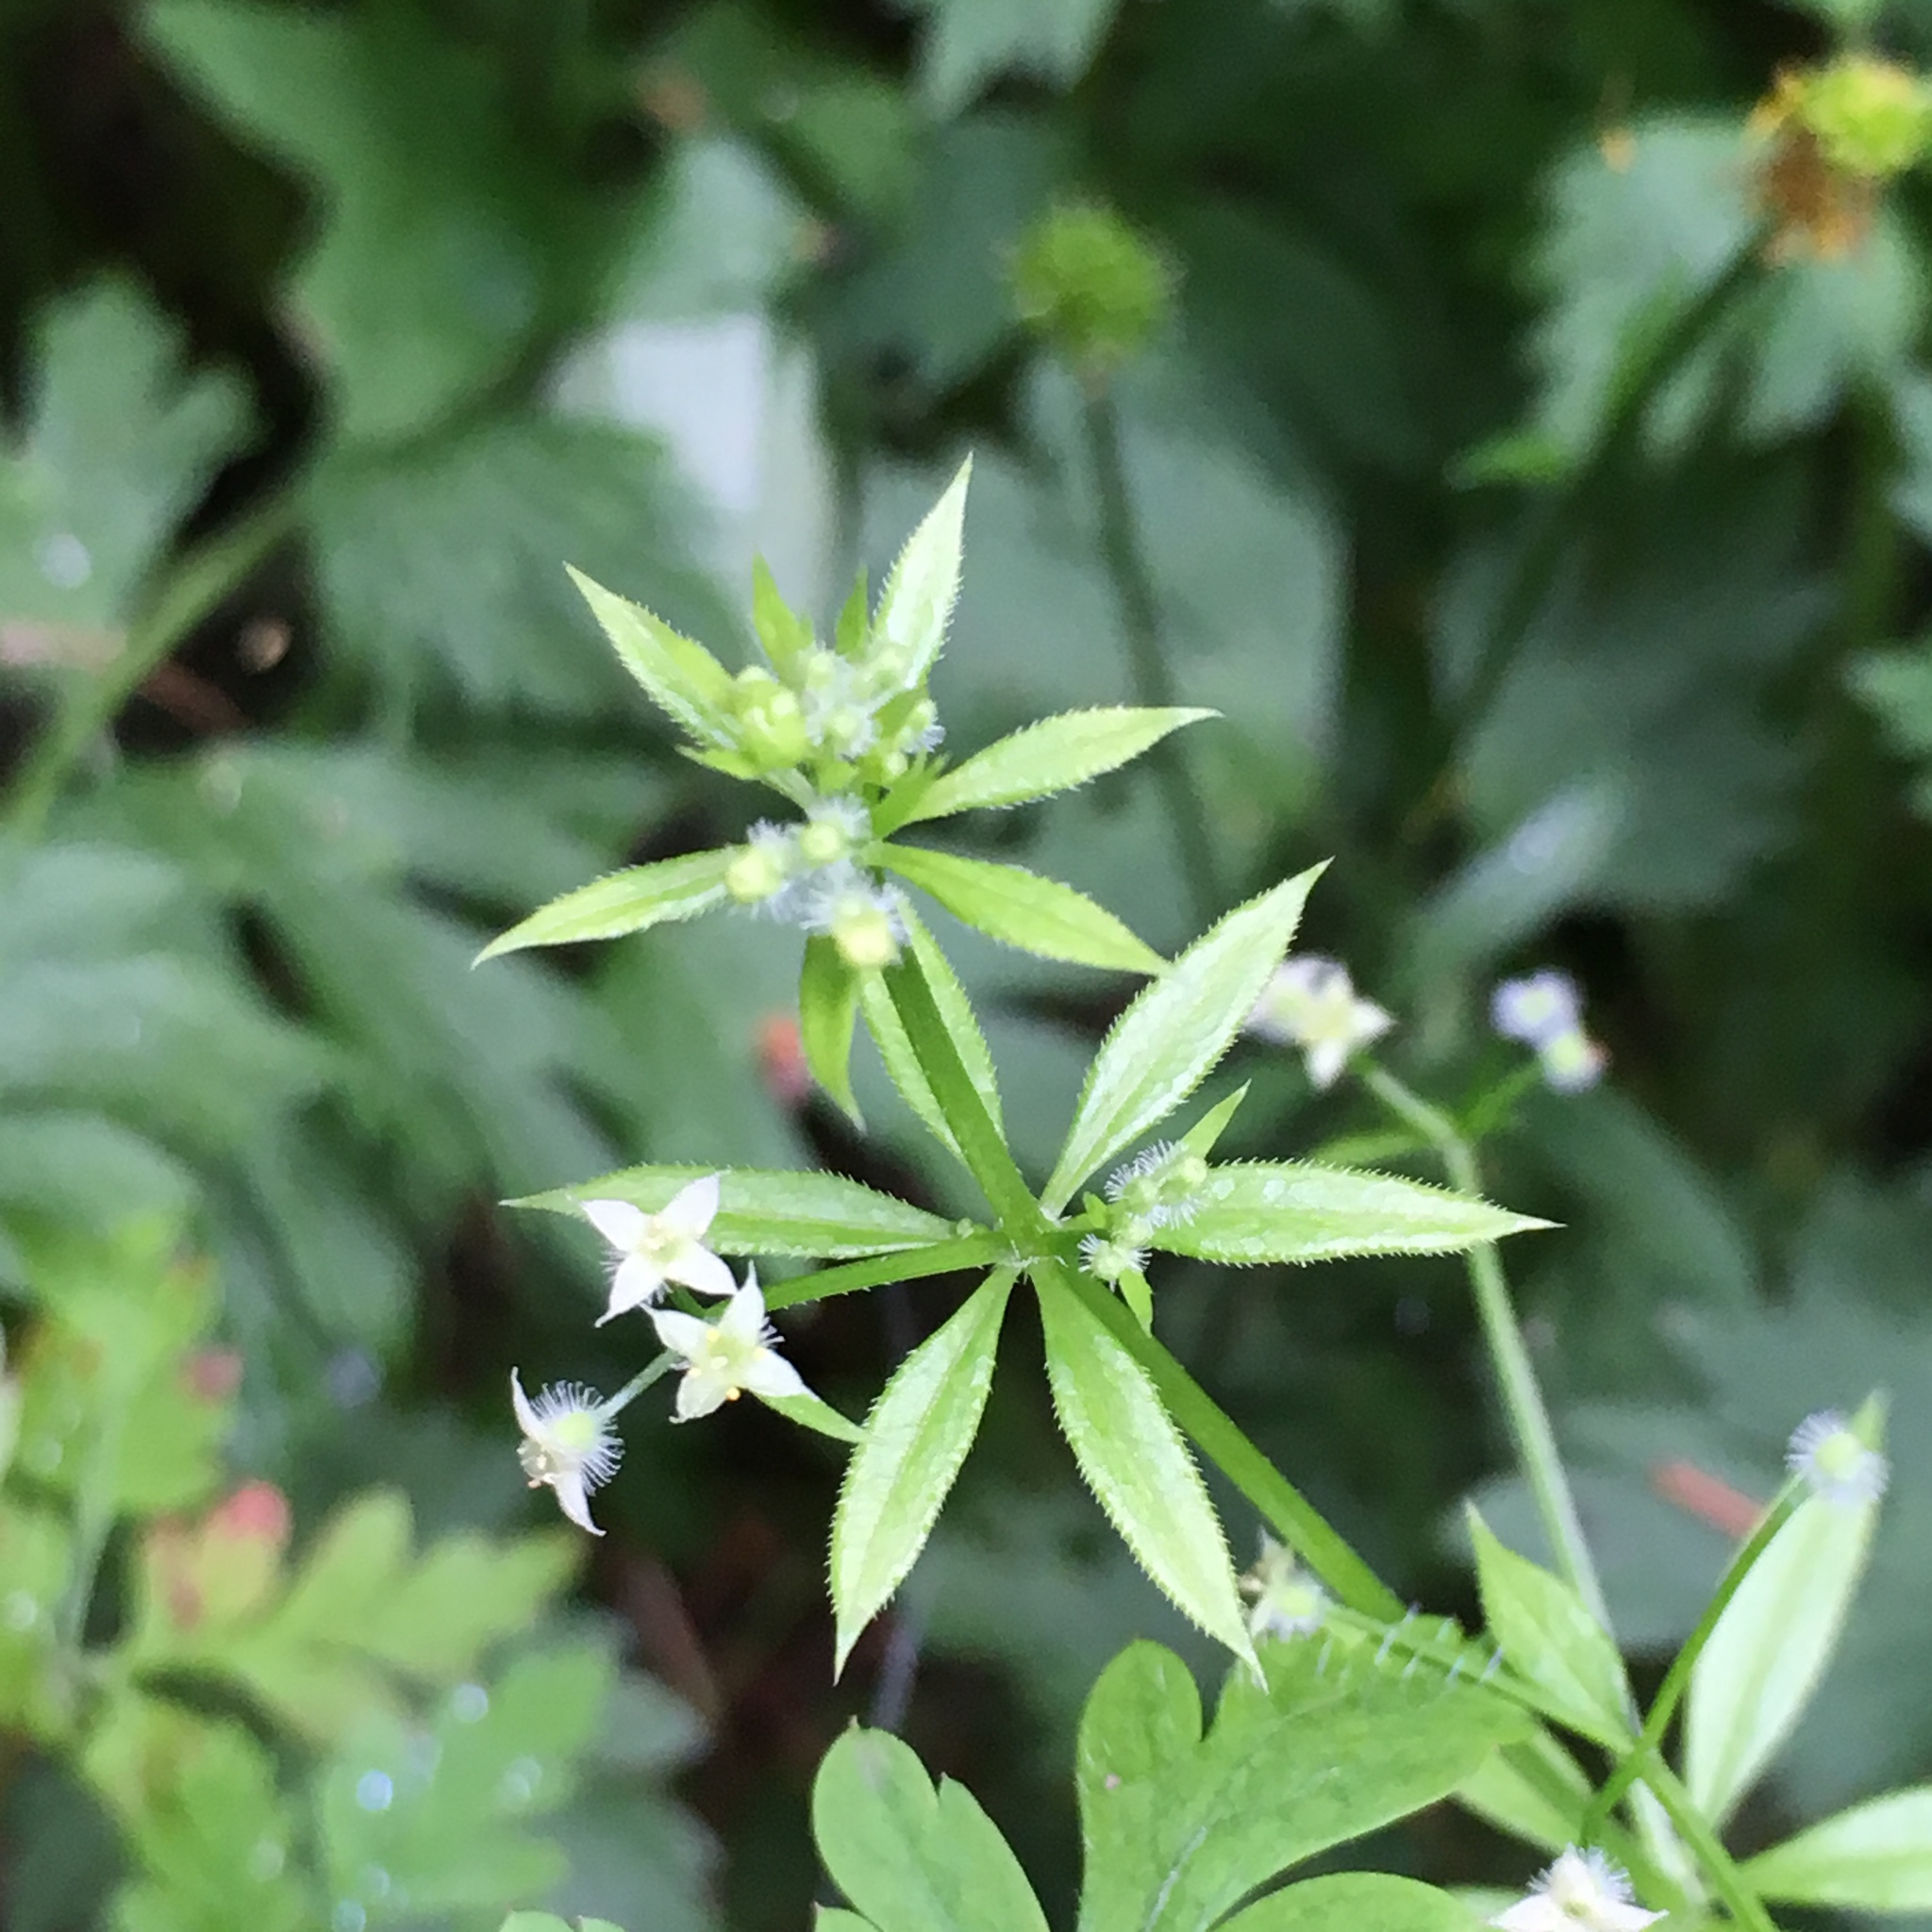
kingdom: Plantae
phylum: Tracheophyta
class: Magnoliopsida
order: Gentianales
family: Rubiaceae
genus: Galium
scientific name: Galium triflorum
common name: Fragrant bedstraw
